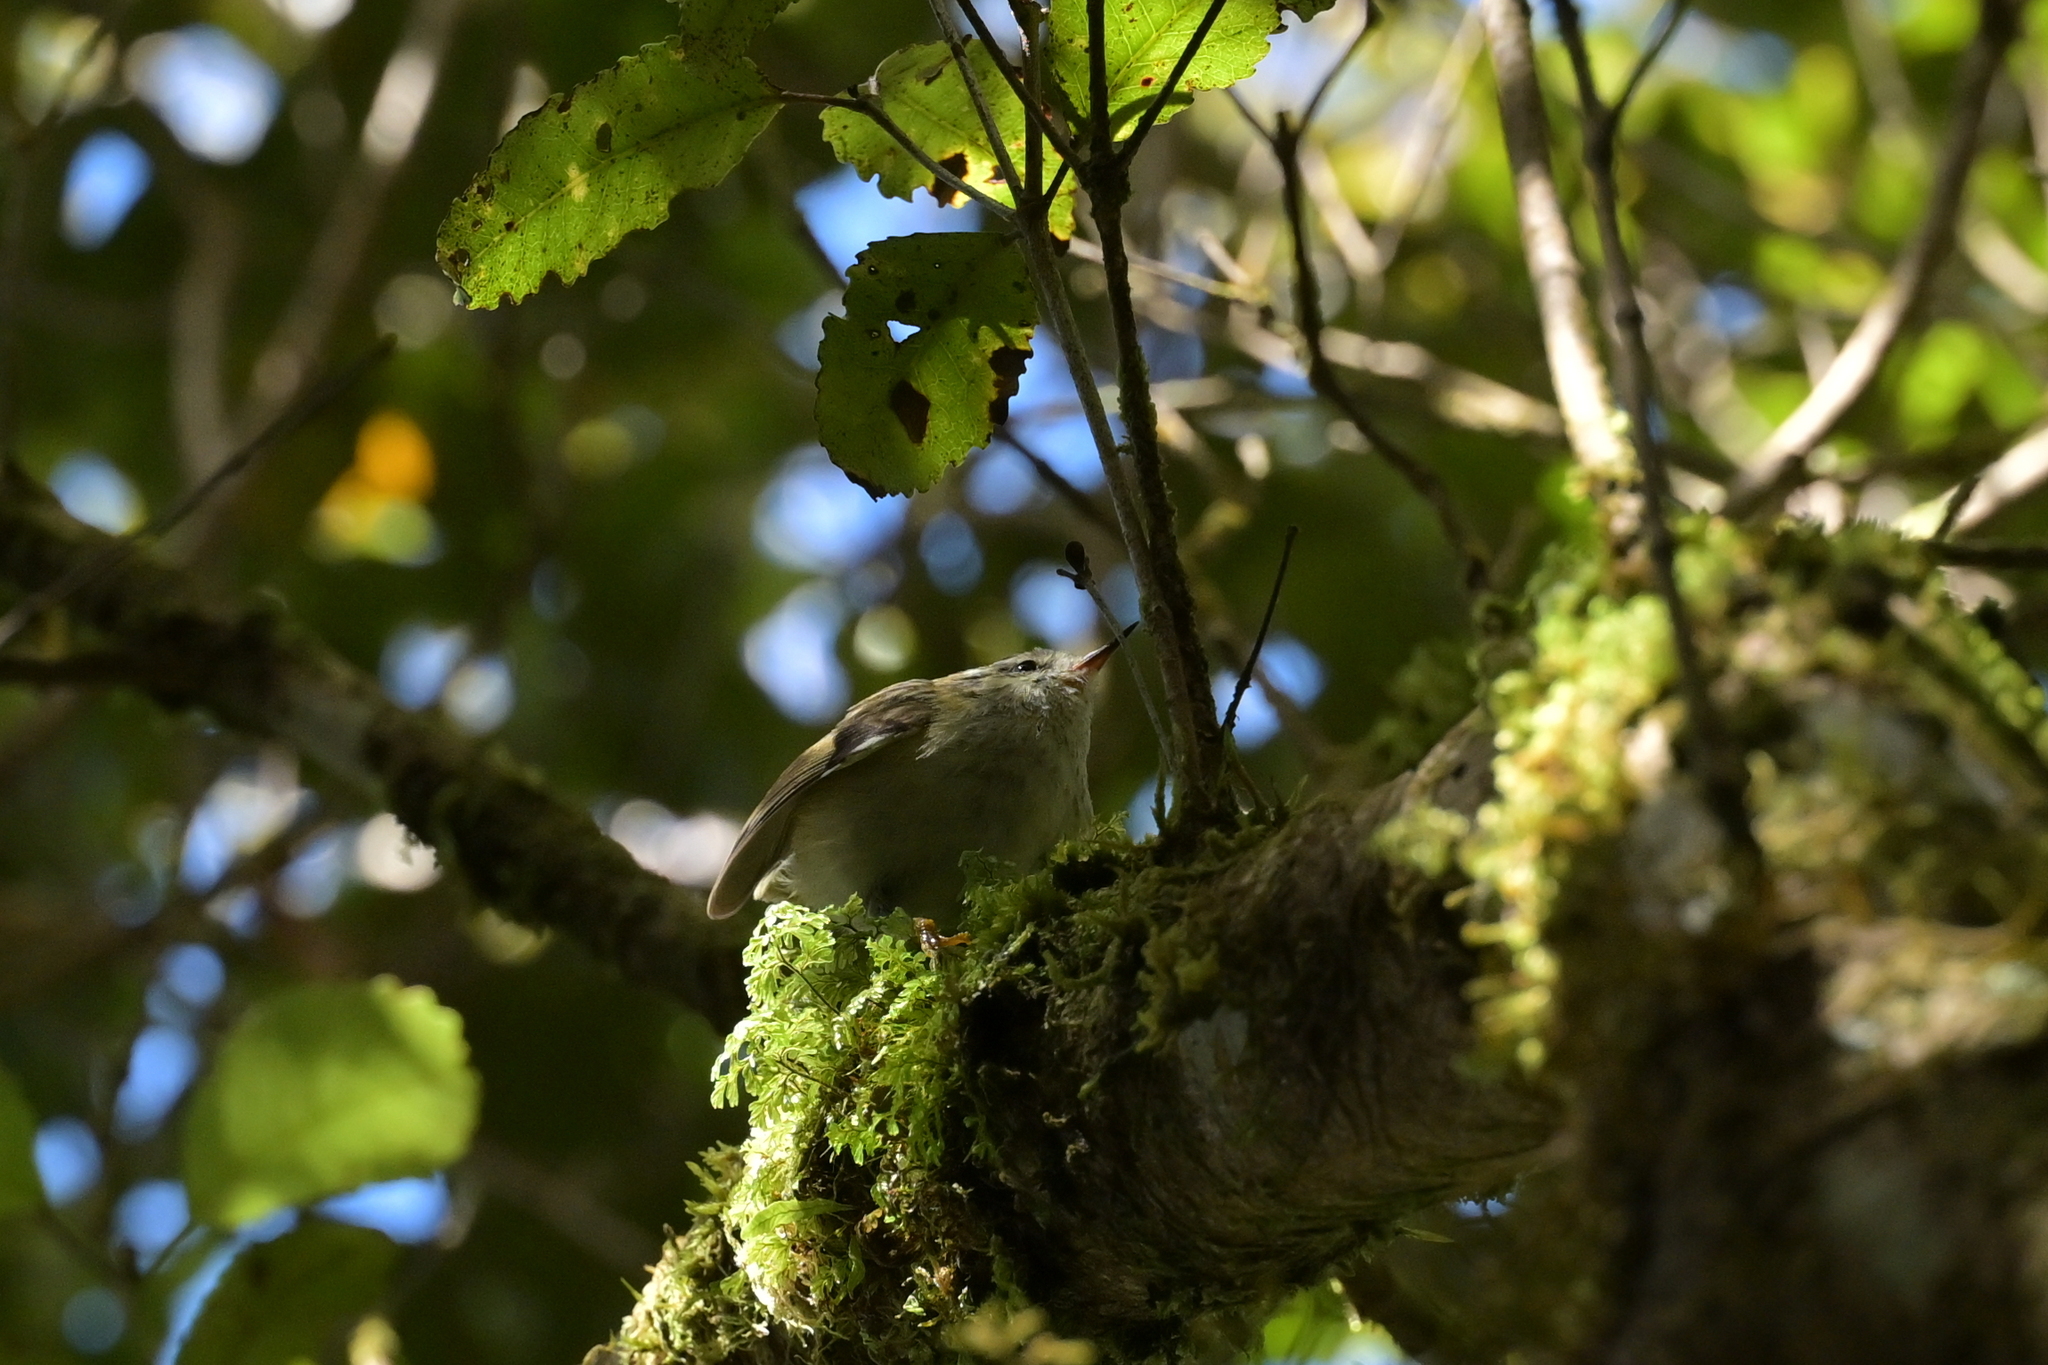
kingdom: Animalia
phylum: Chordata
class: Aves
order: Passeriformes
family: Acanthisittidae
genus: Acanthisitta
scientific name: Acanthisitta chloris
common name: Rifleman
